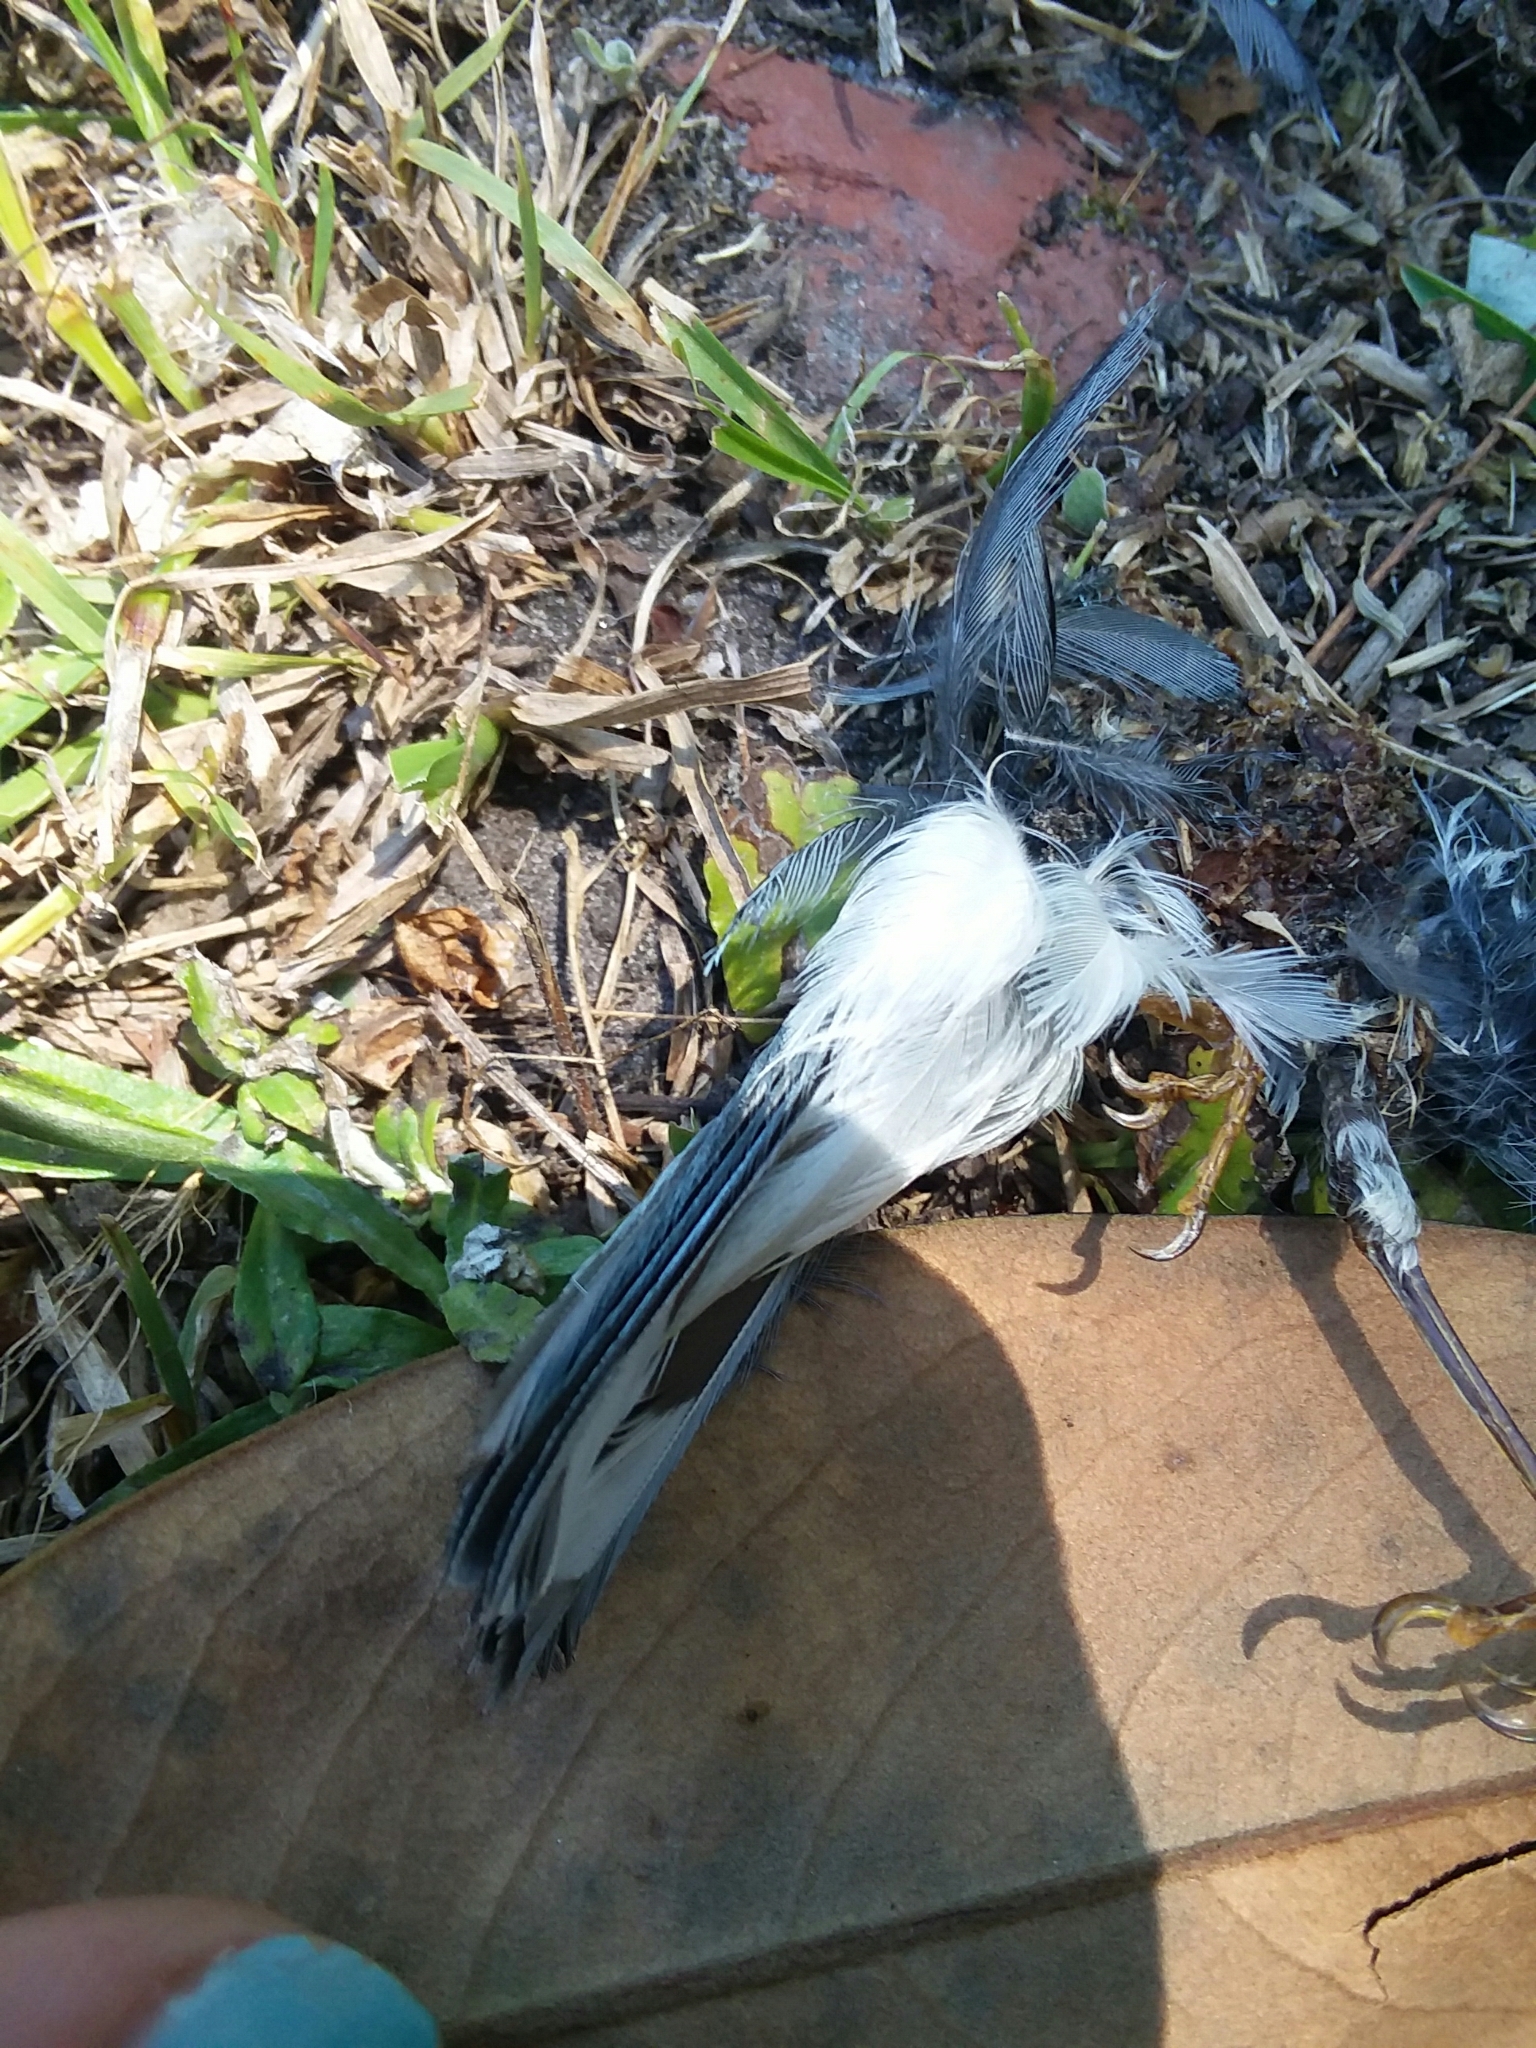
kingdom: Animalia
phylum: Chordata
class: Aves
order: Passeriformes
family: Parulidae
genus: Setophaga
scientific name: Setophaga caerulescens
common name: Black-throated blue warbler
